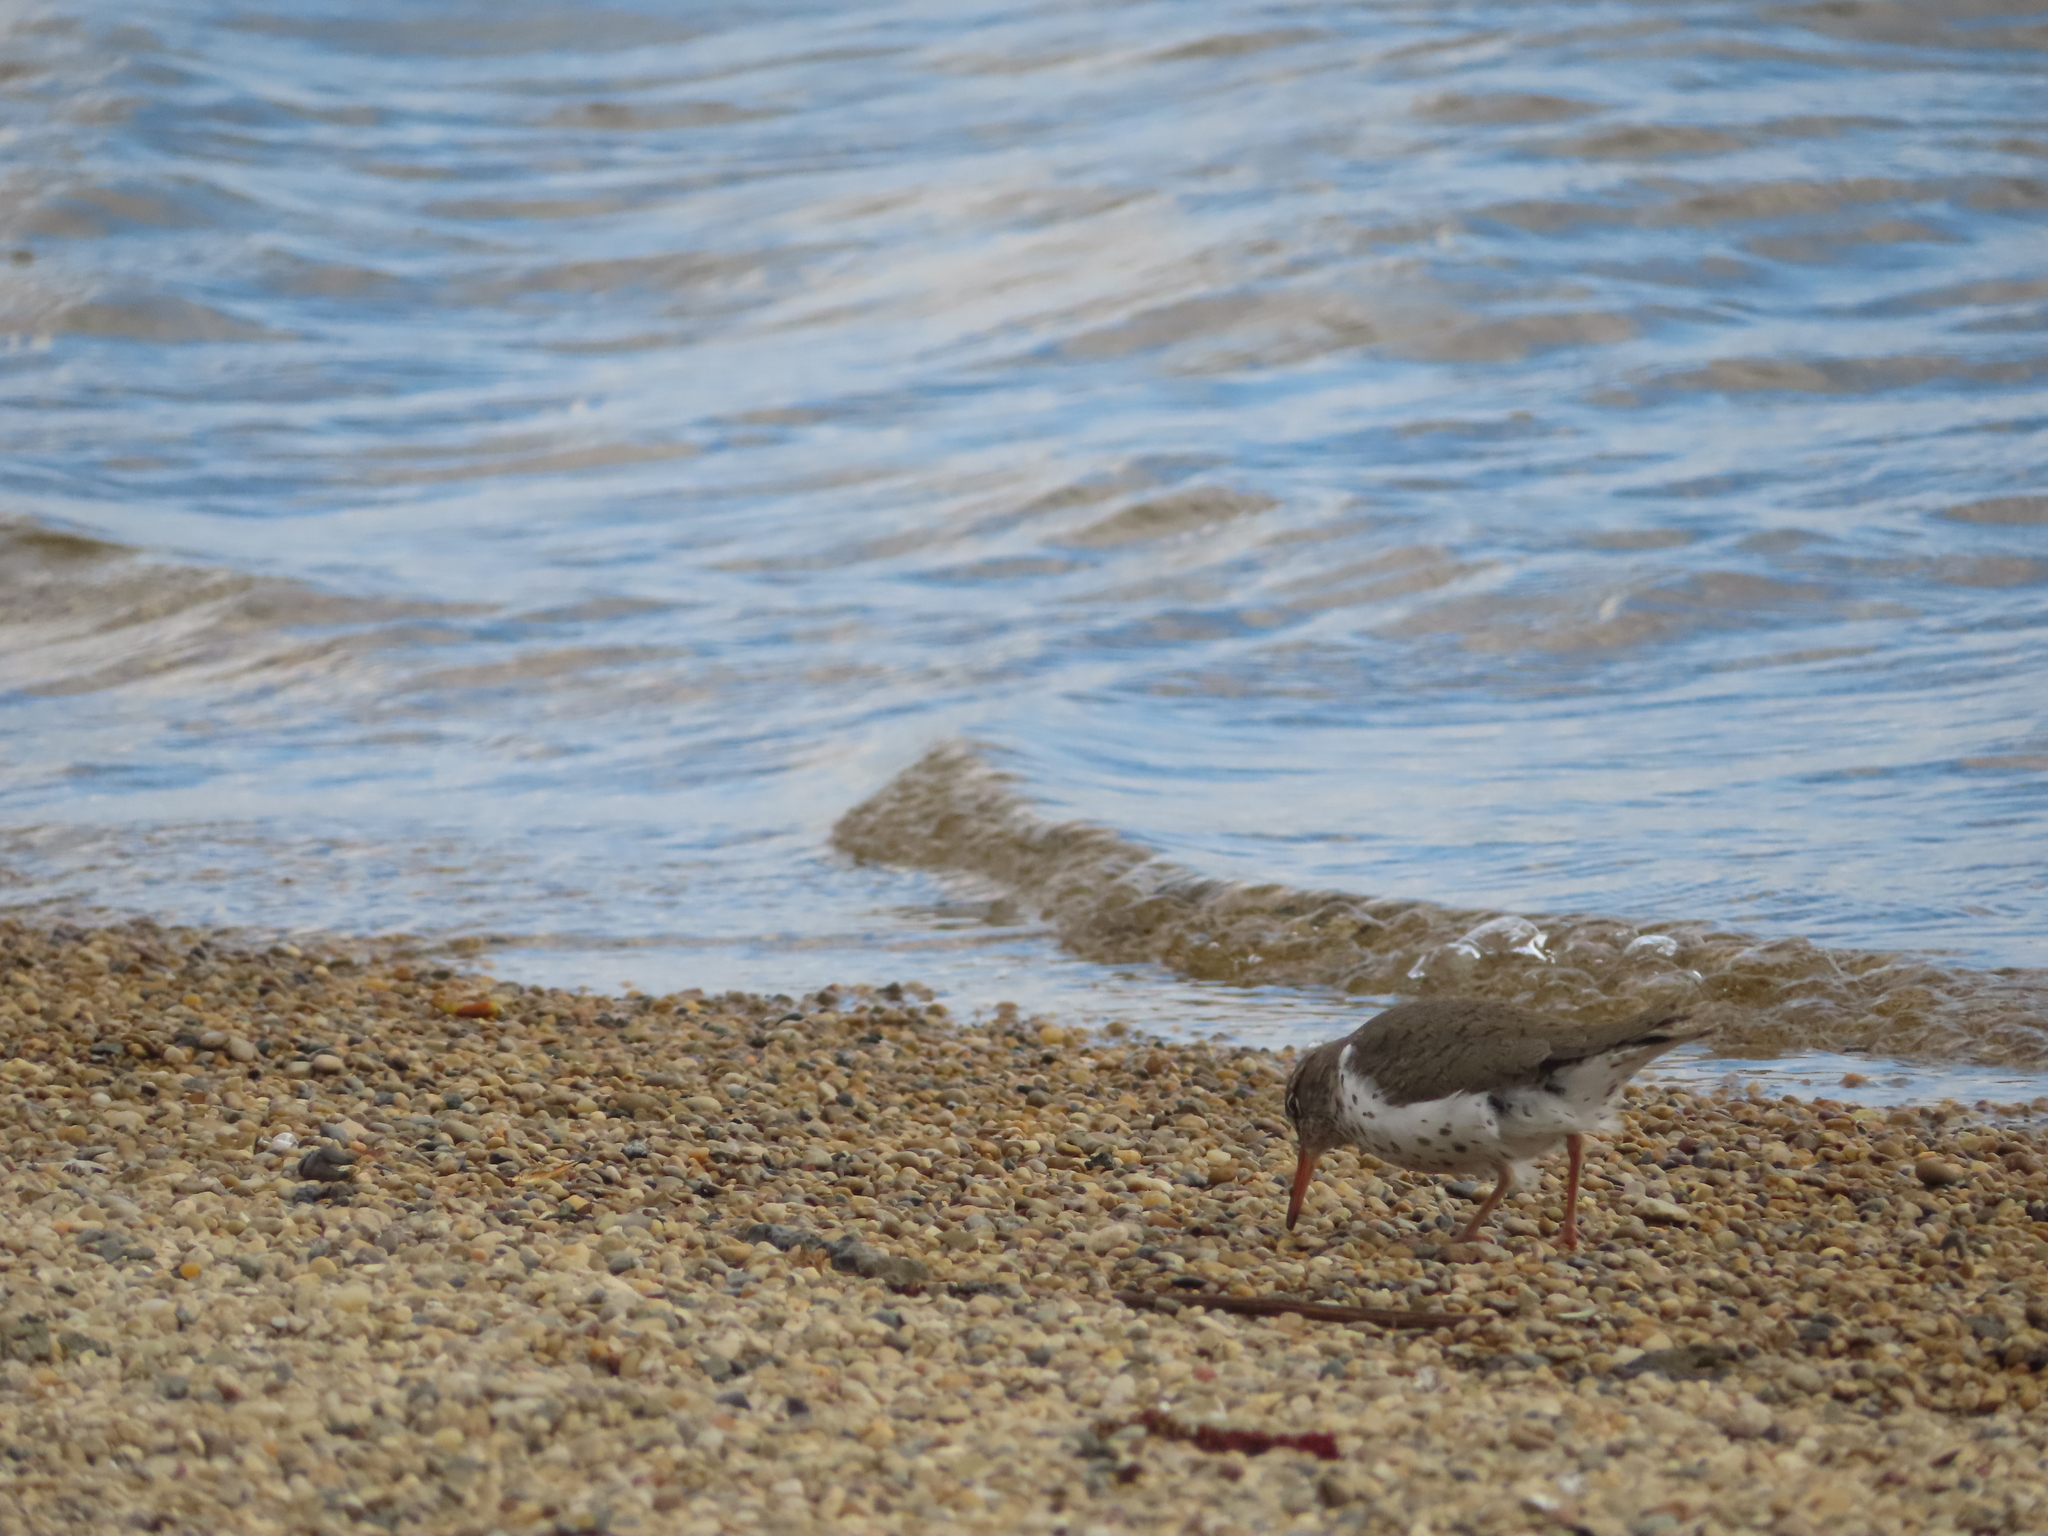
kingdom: Animalia
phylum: Chordata
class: Aves
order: Charadriiformes
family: Scolopacidae
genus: Actitis
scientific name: Actitis macularius
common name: Spotted sandpiper
